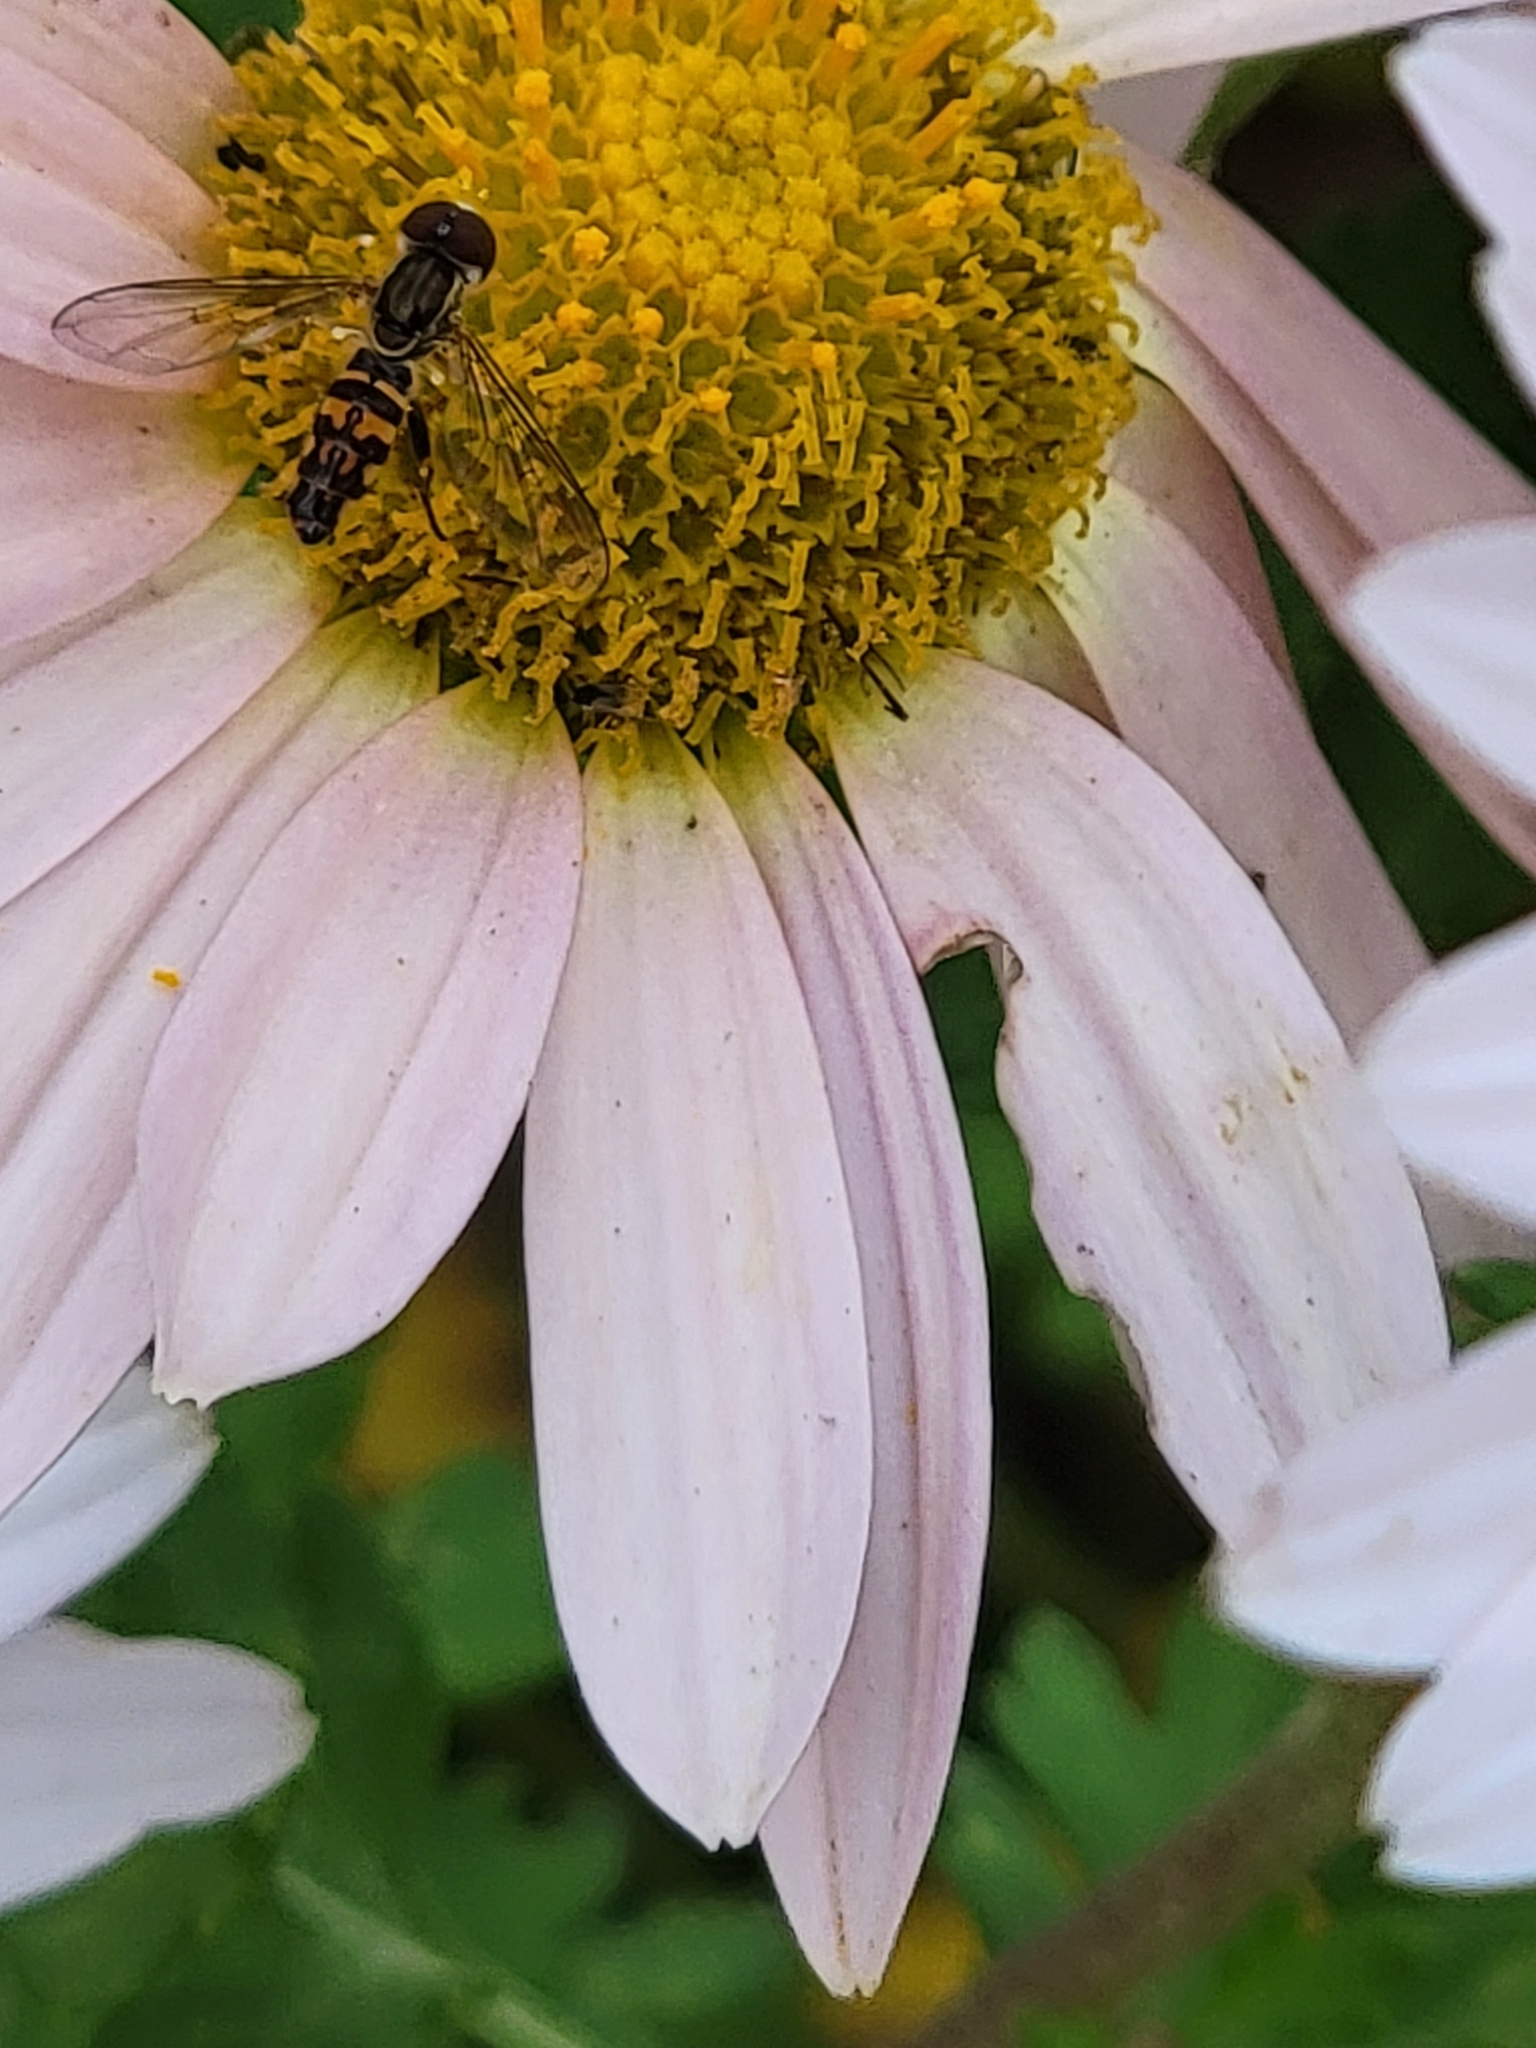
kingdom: Animalia
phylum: Arthropoda
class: Insecta
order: Diptera
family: Syrphidae
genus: Toxomerus
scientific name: Toxomerus geminatus
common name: Eastern calligrapher
